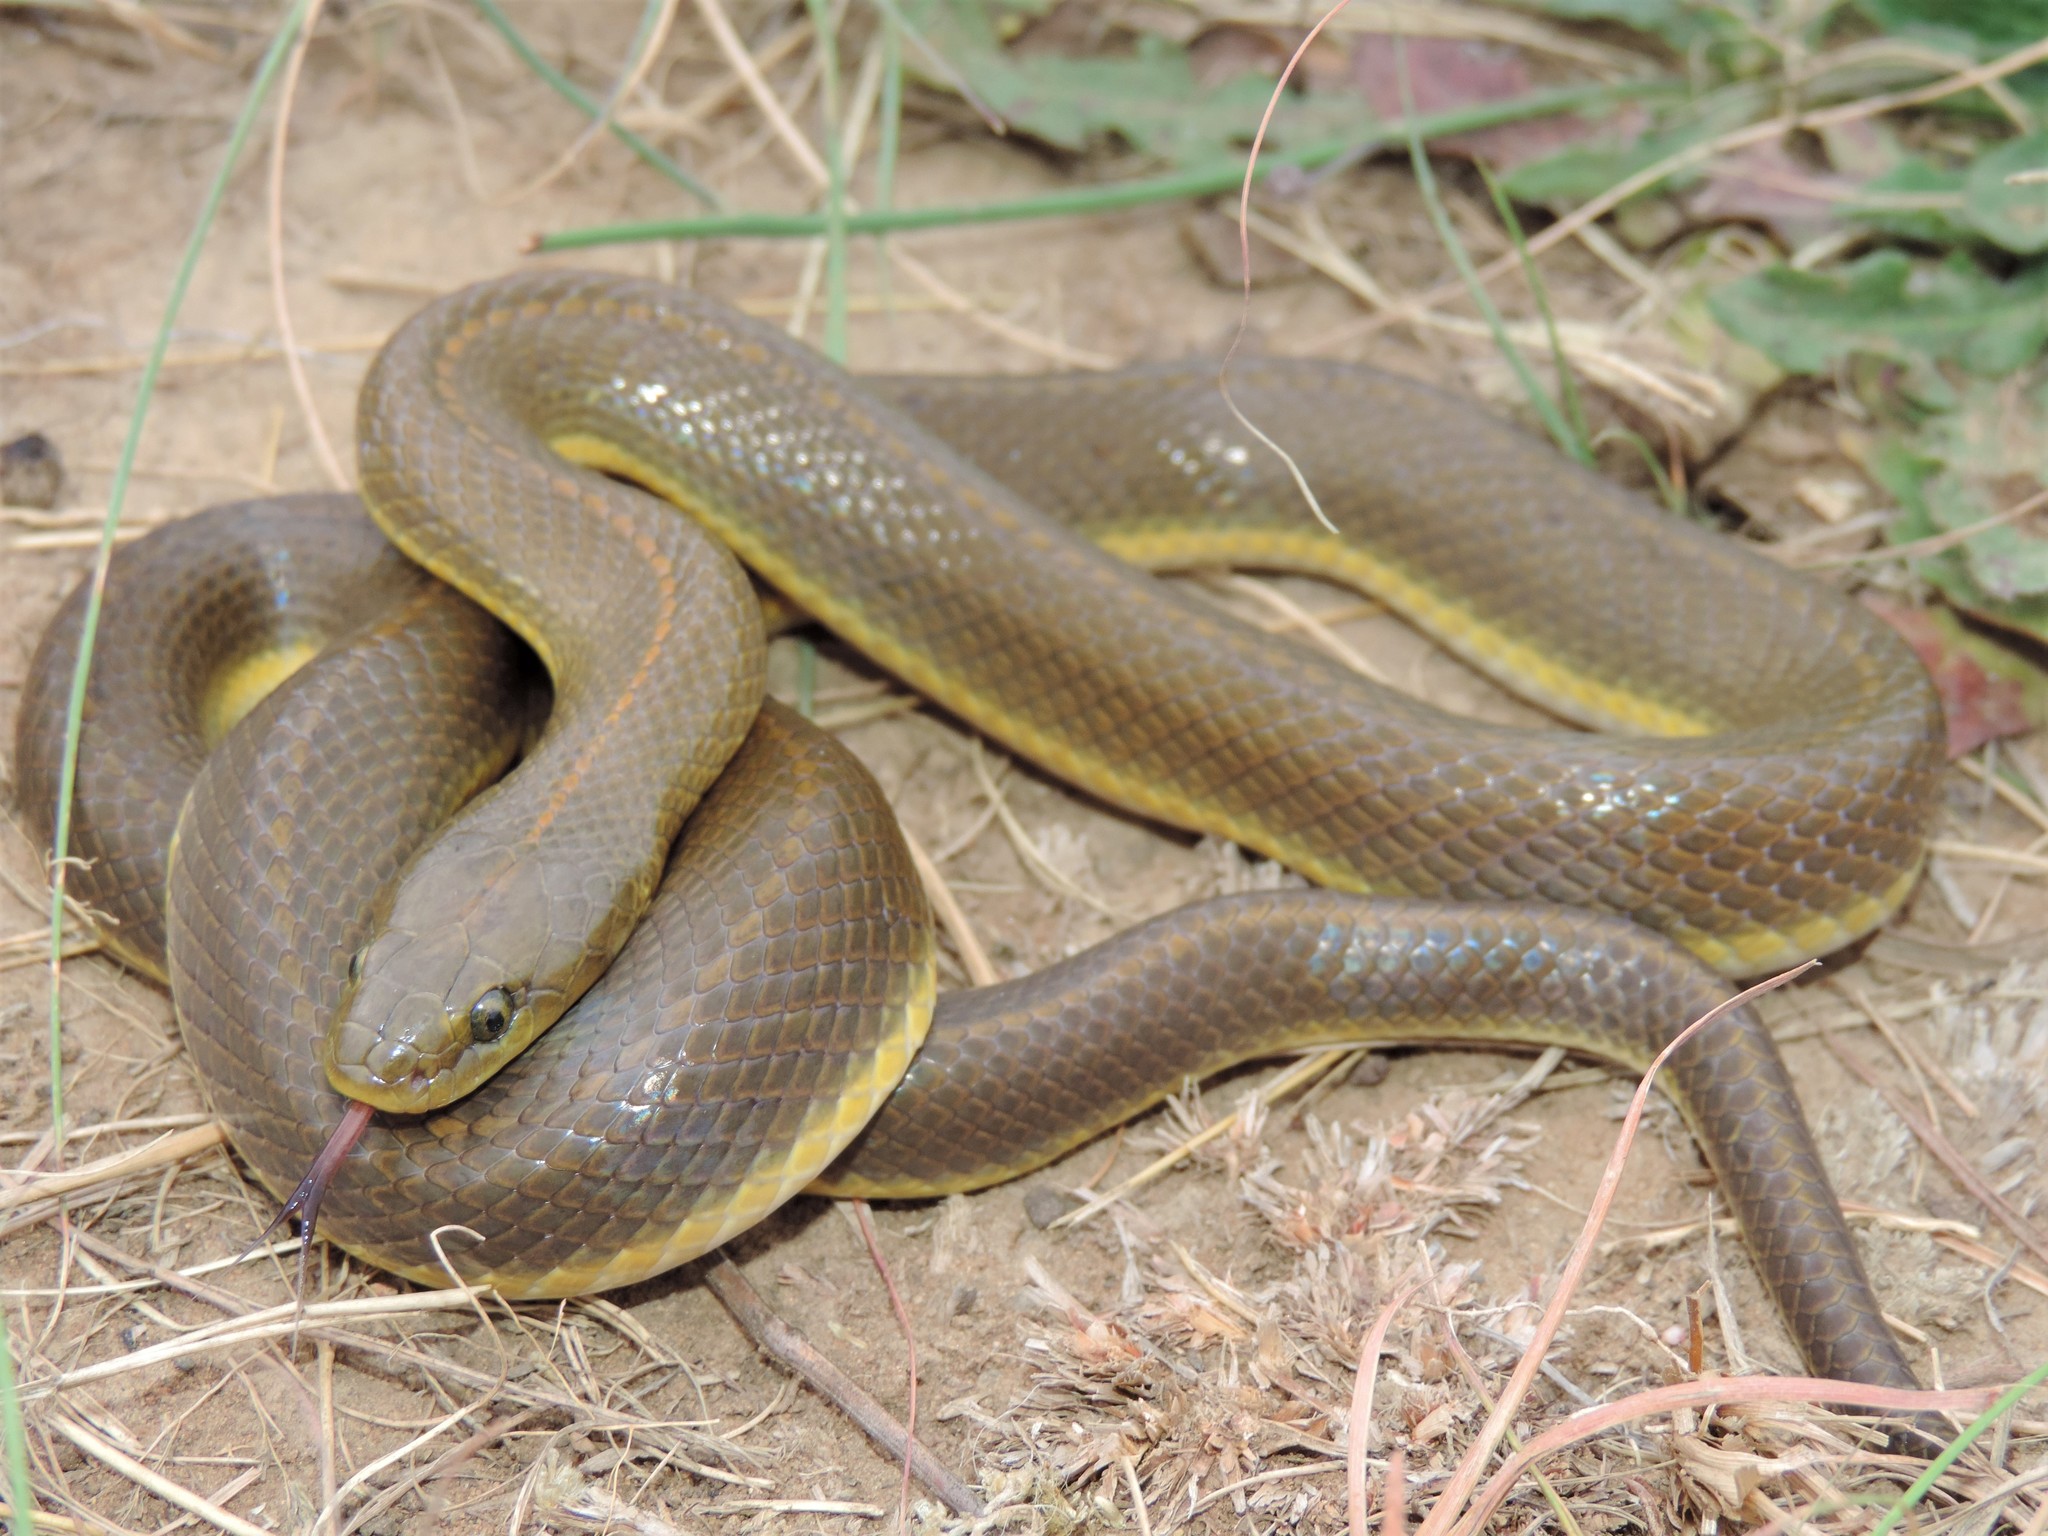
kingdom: Animalia
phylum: Chordata
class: Squamata
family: Lamprophiidae
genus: Lamprophis
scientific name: Lamprophis aurora
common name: Aurora house snake
